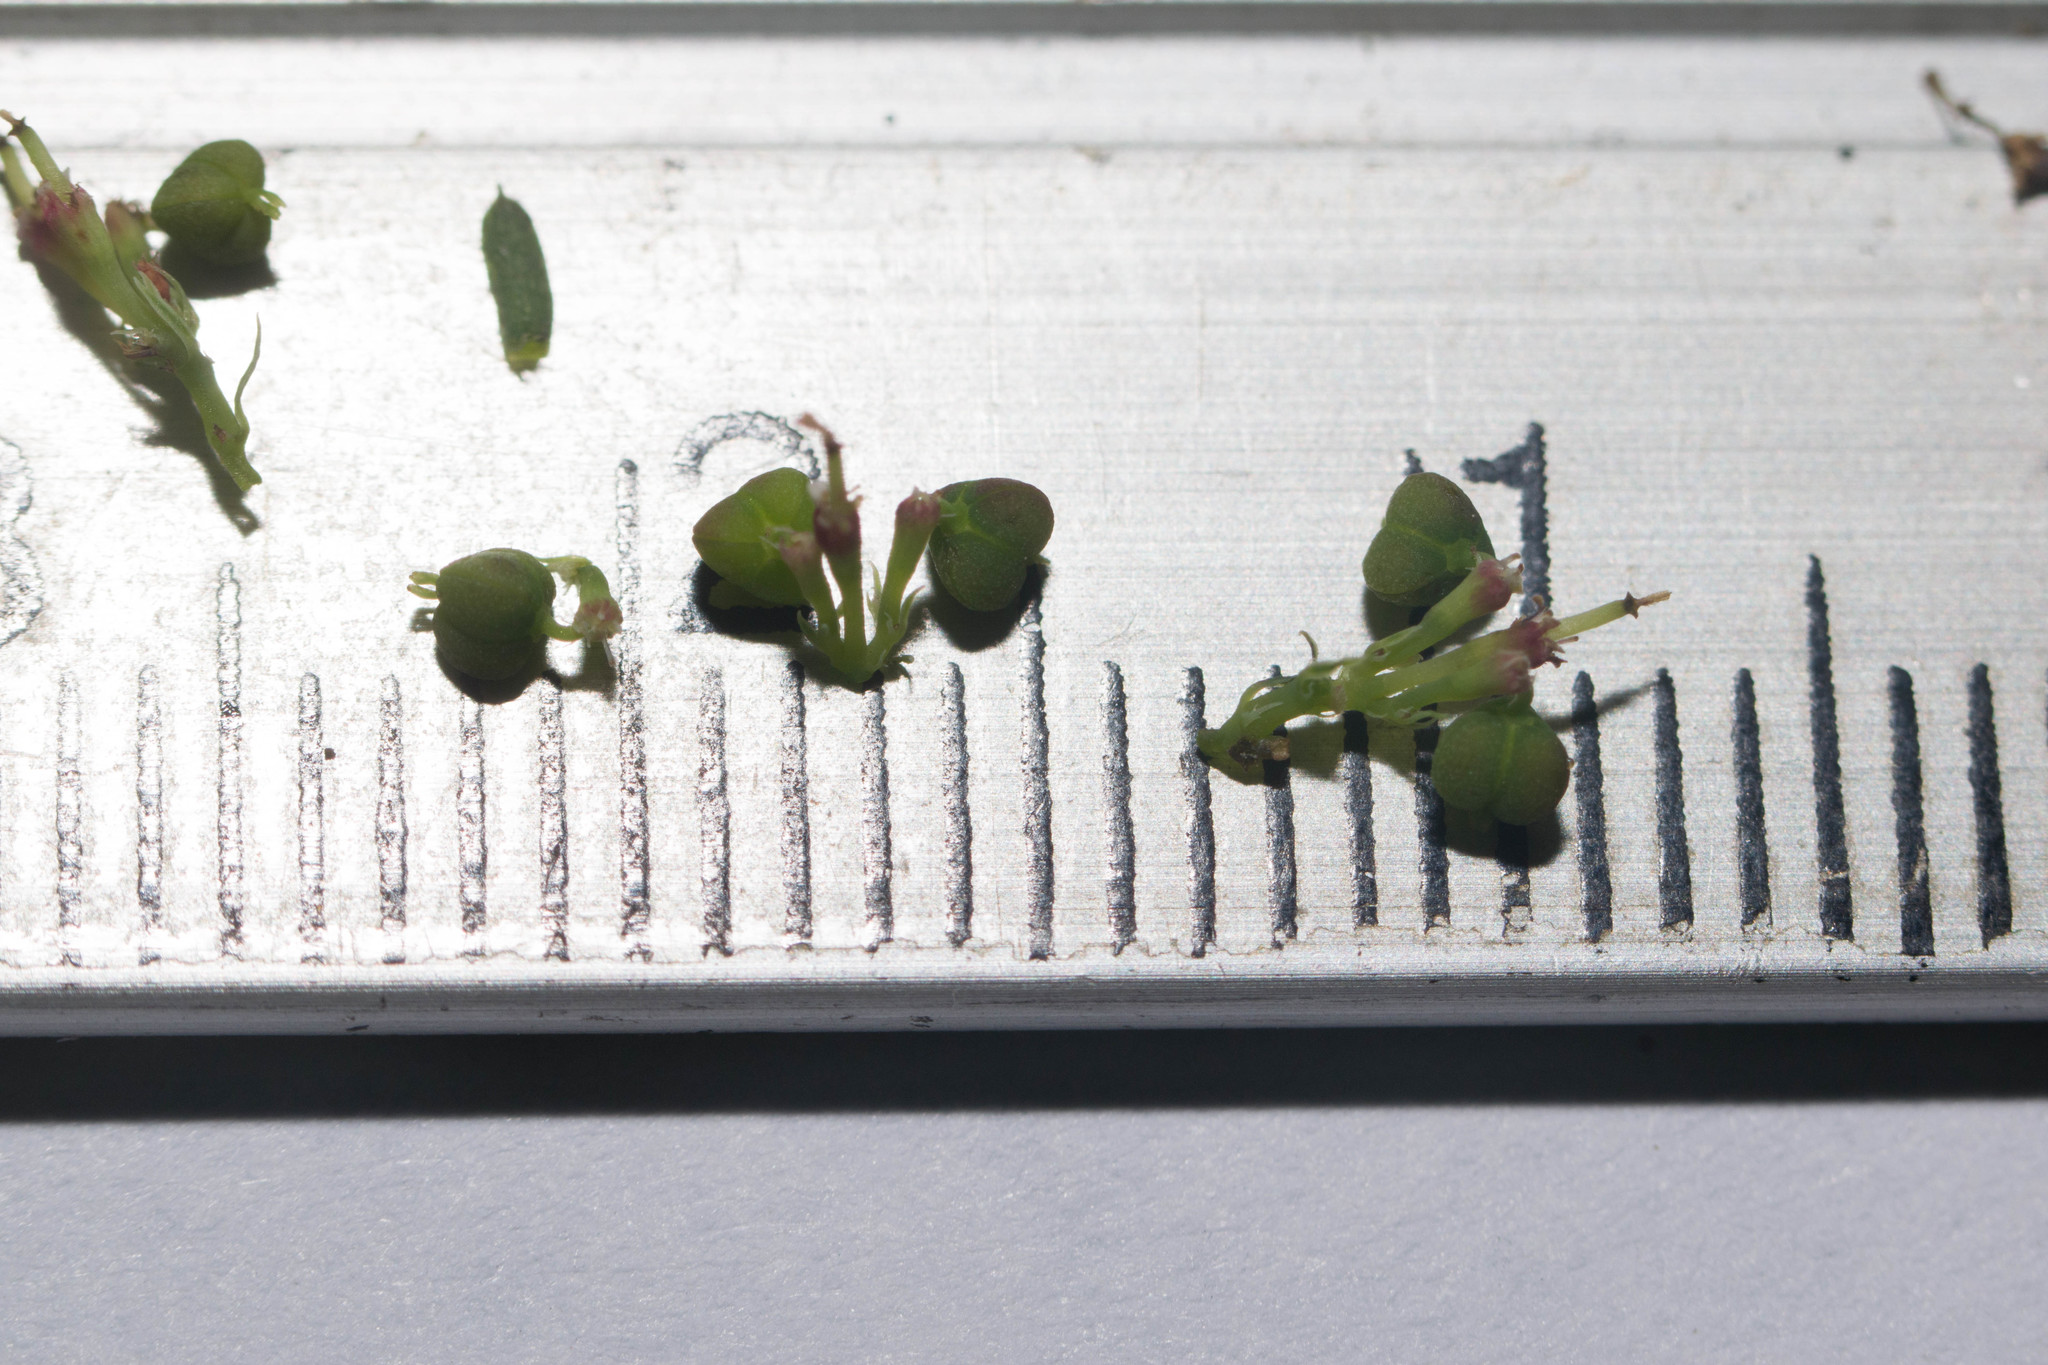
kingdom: Plantae
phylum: Tracheophyta
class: Magnoliopsida
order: Malpighiales
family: Euphorbiaceae
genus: Euphorbia
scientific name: Euphorbia hypericifolia
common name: Graceful sandmat
